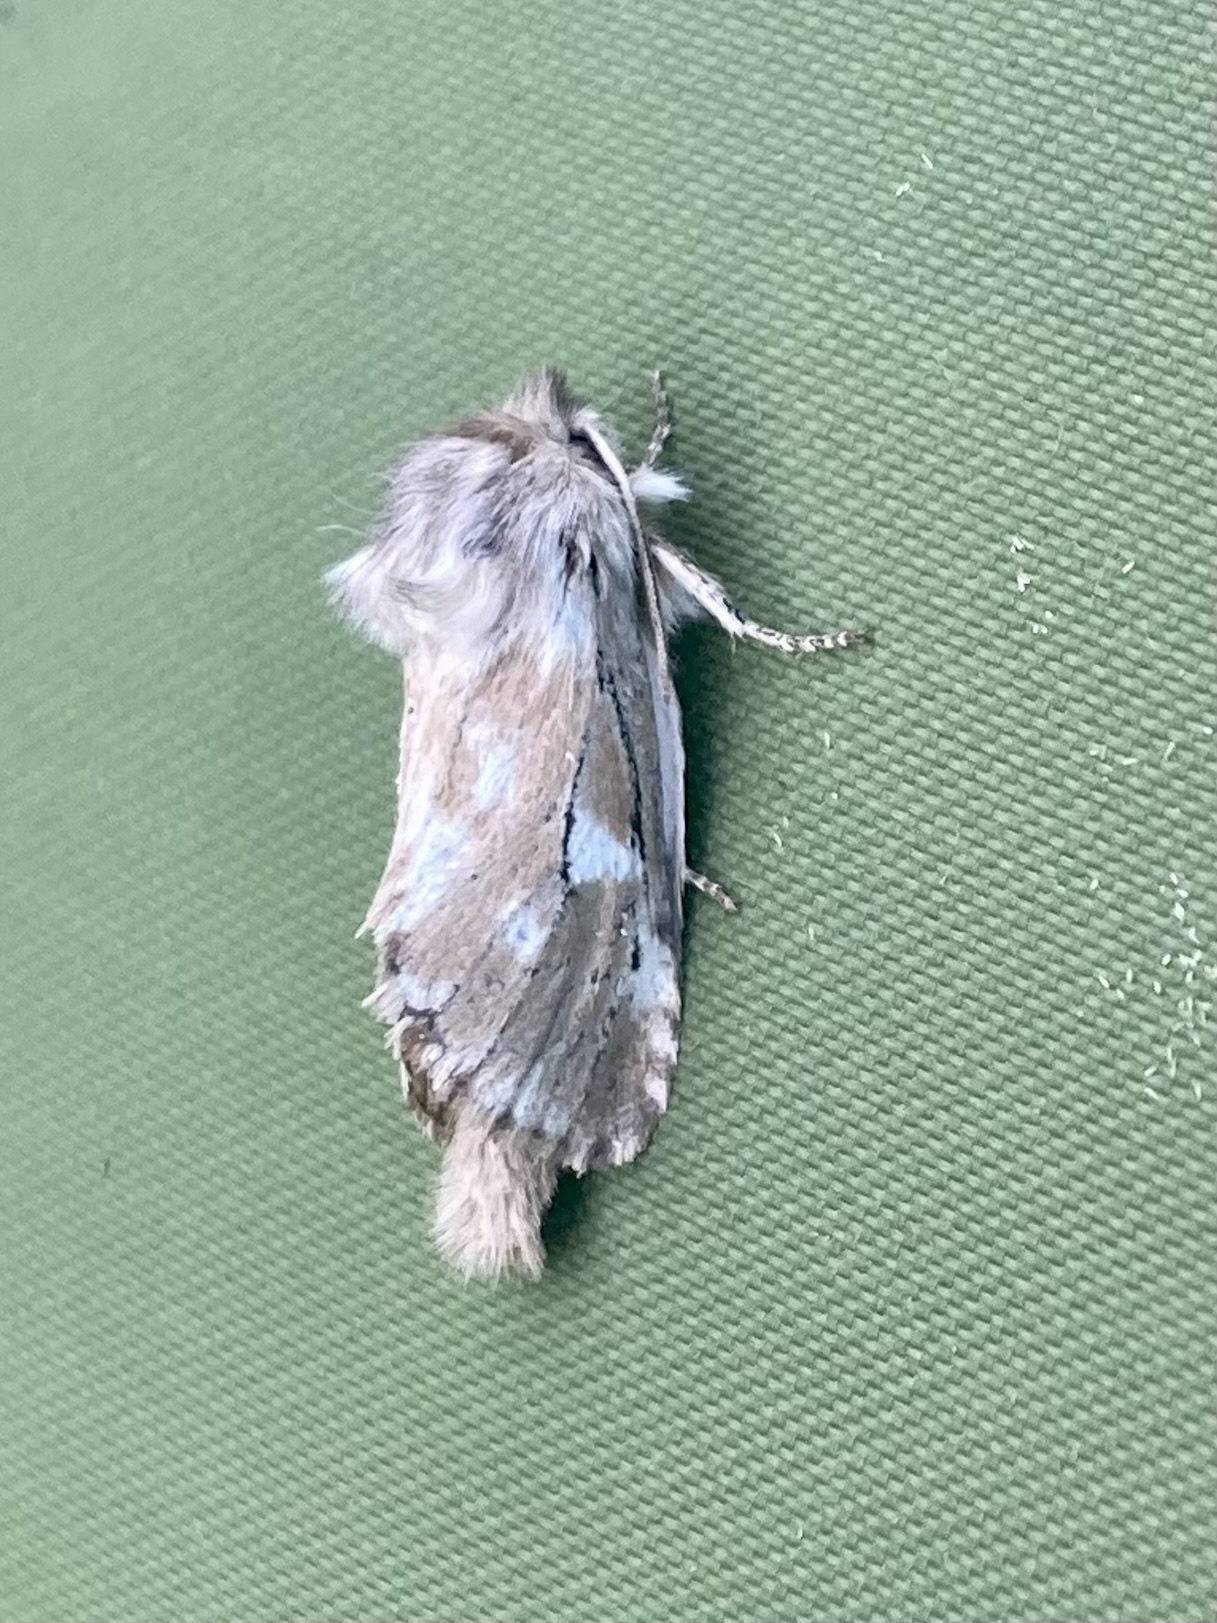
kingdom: Animalia
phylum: Arthropoda
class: Insecta
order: Lepidoptera
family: Cossidae
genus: Dyspessa
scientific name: Dyspessa ulula
